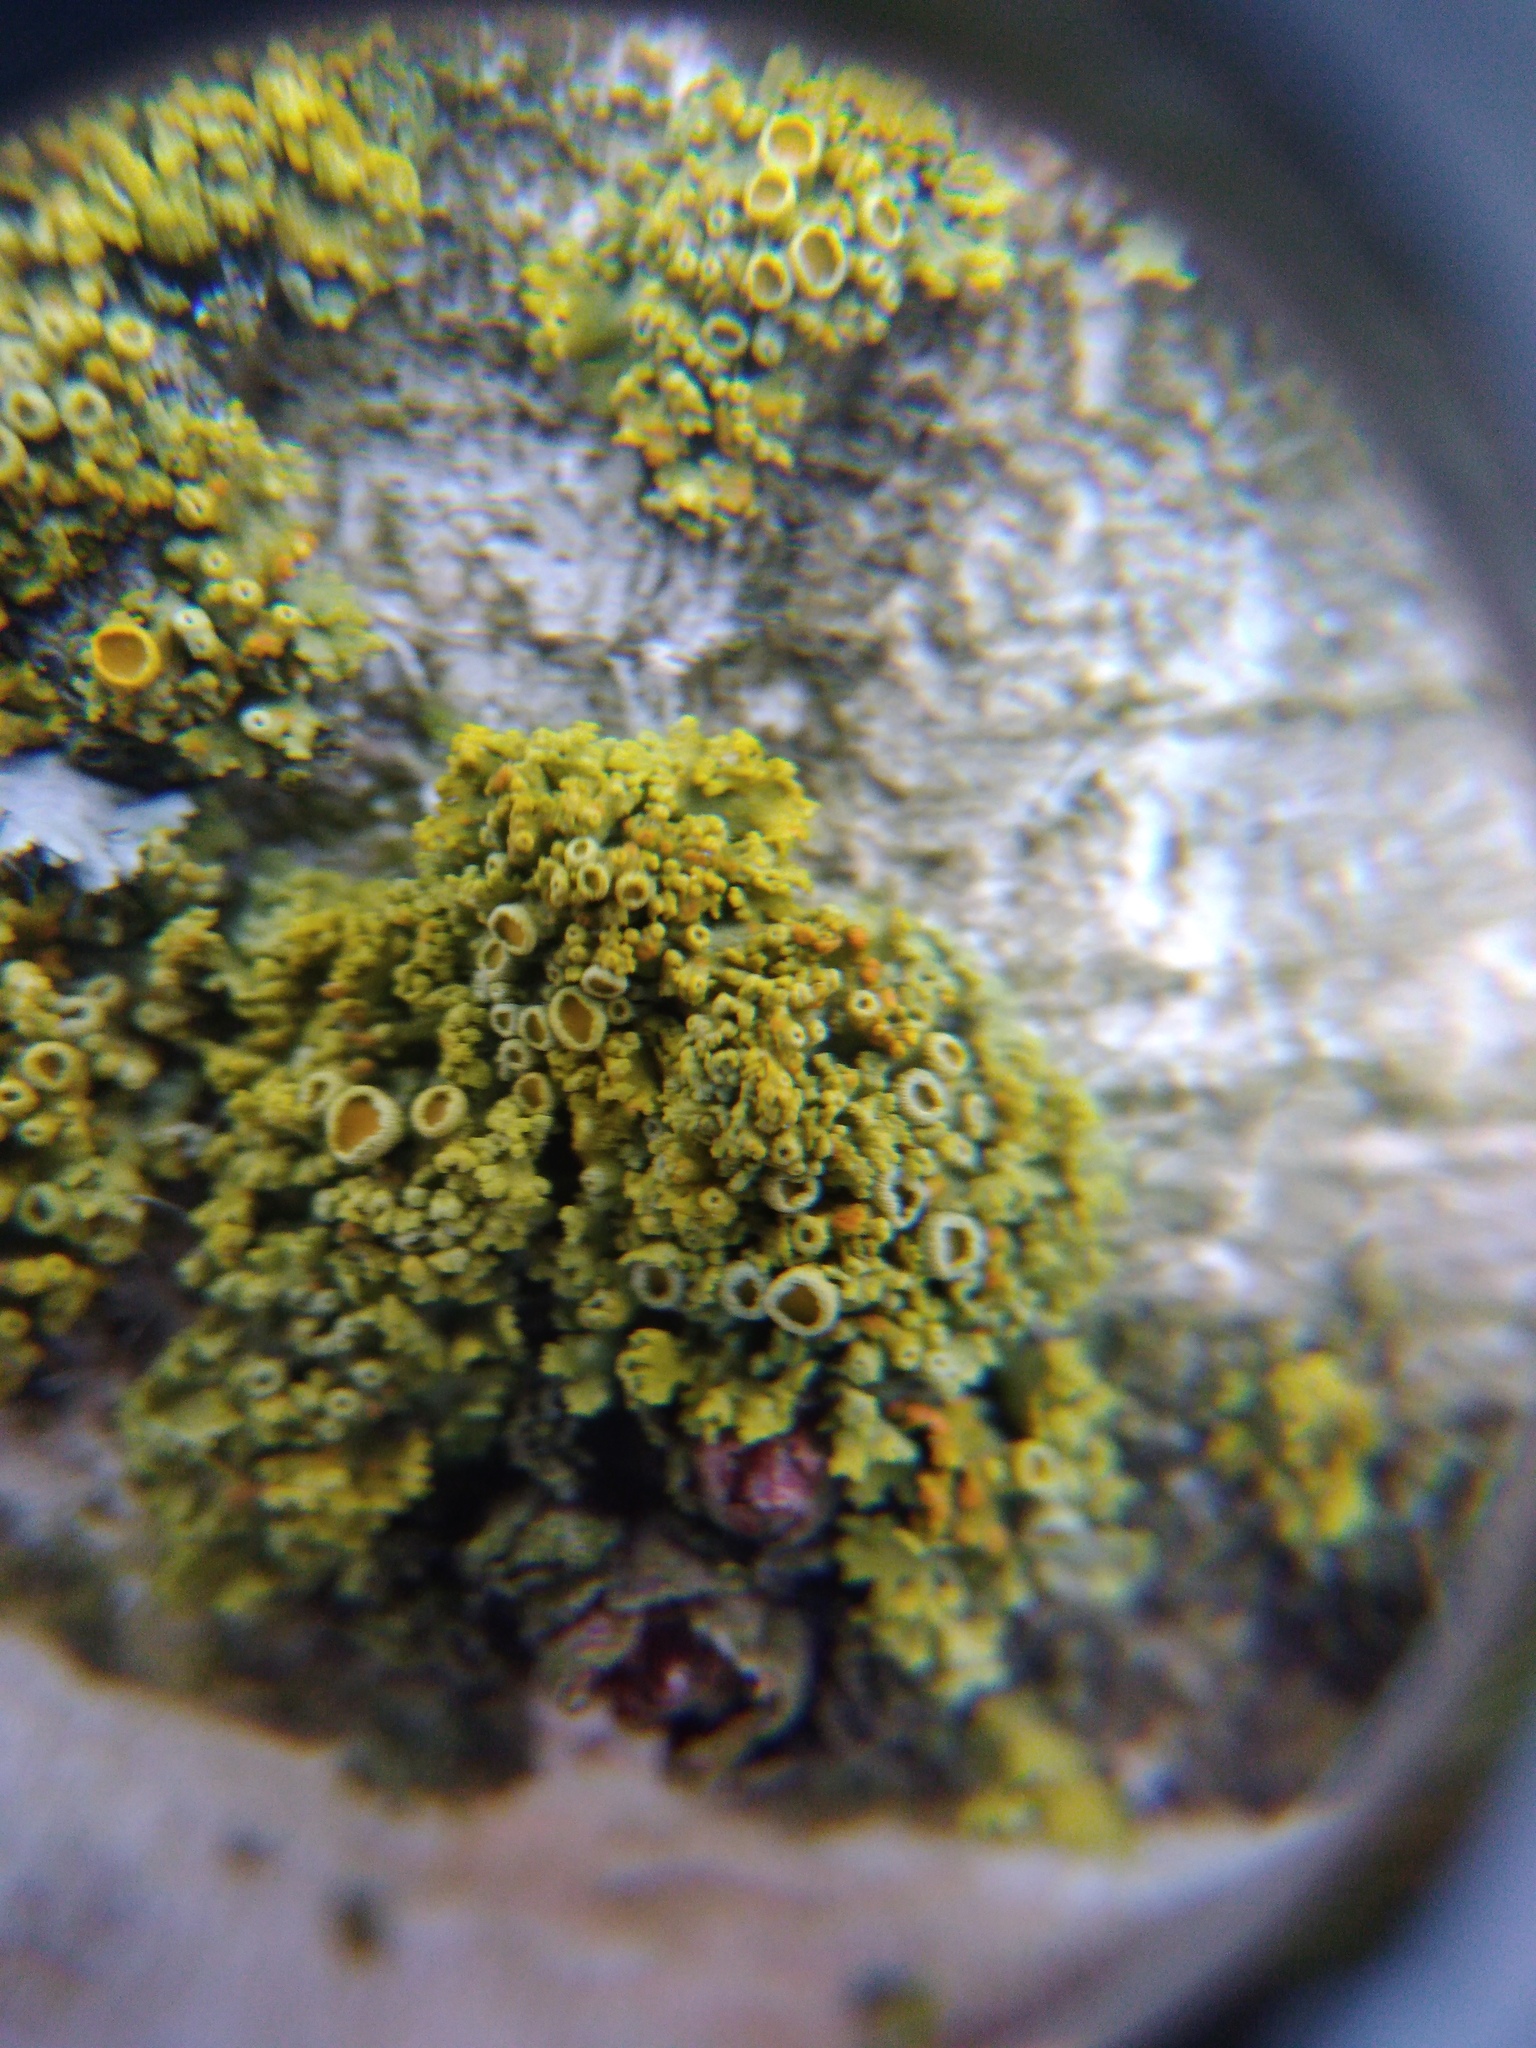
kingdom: Fungi
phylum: Ascomycota
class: Lecanoromycetes
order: Teloschistales
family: Teloschistaceae
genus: Polycauliona
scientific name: Polycauliona polycarpa
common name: Pin-cushion sunburst lichen
